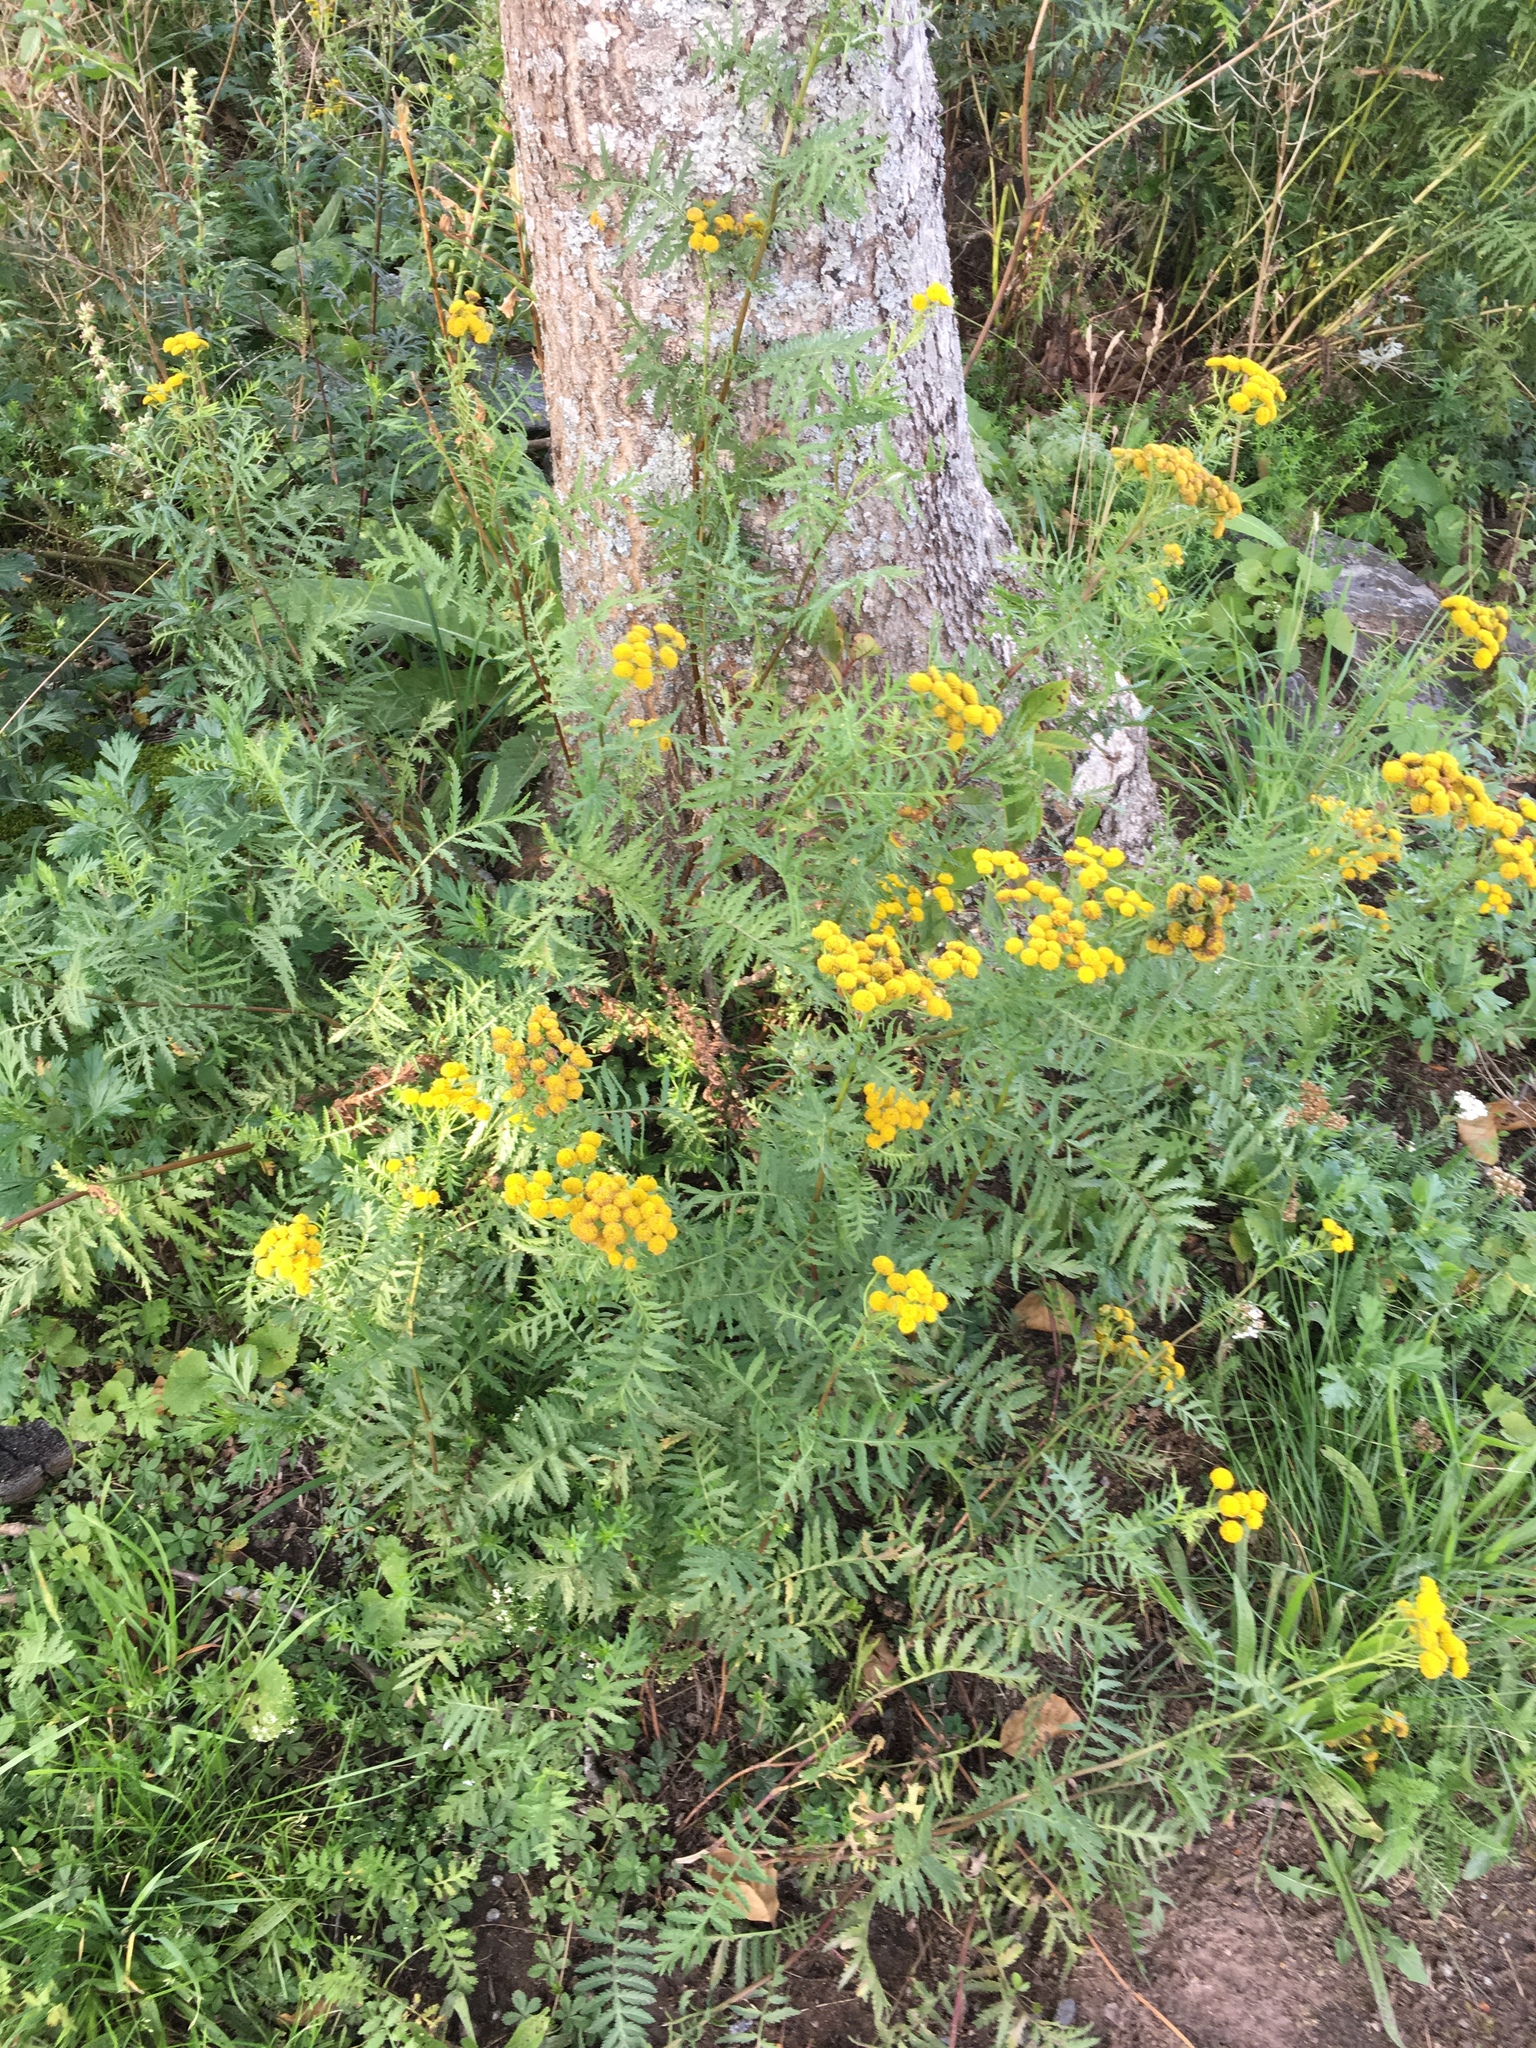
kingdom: Plantae
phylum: Tracheophyta
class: Magnoliopsida
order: Asterales
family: Asteraceae
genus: Tanacetum
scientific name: Tanacetum vulgare
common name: Common tansy
